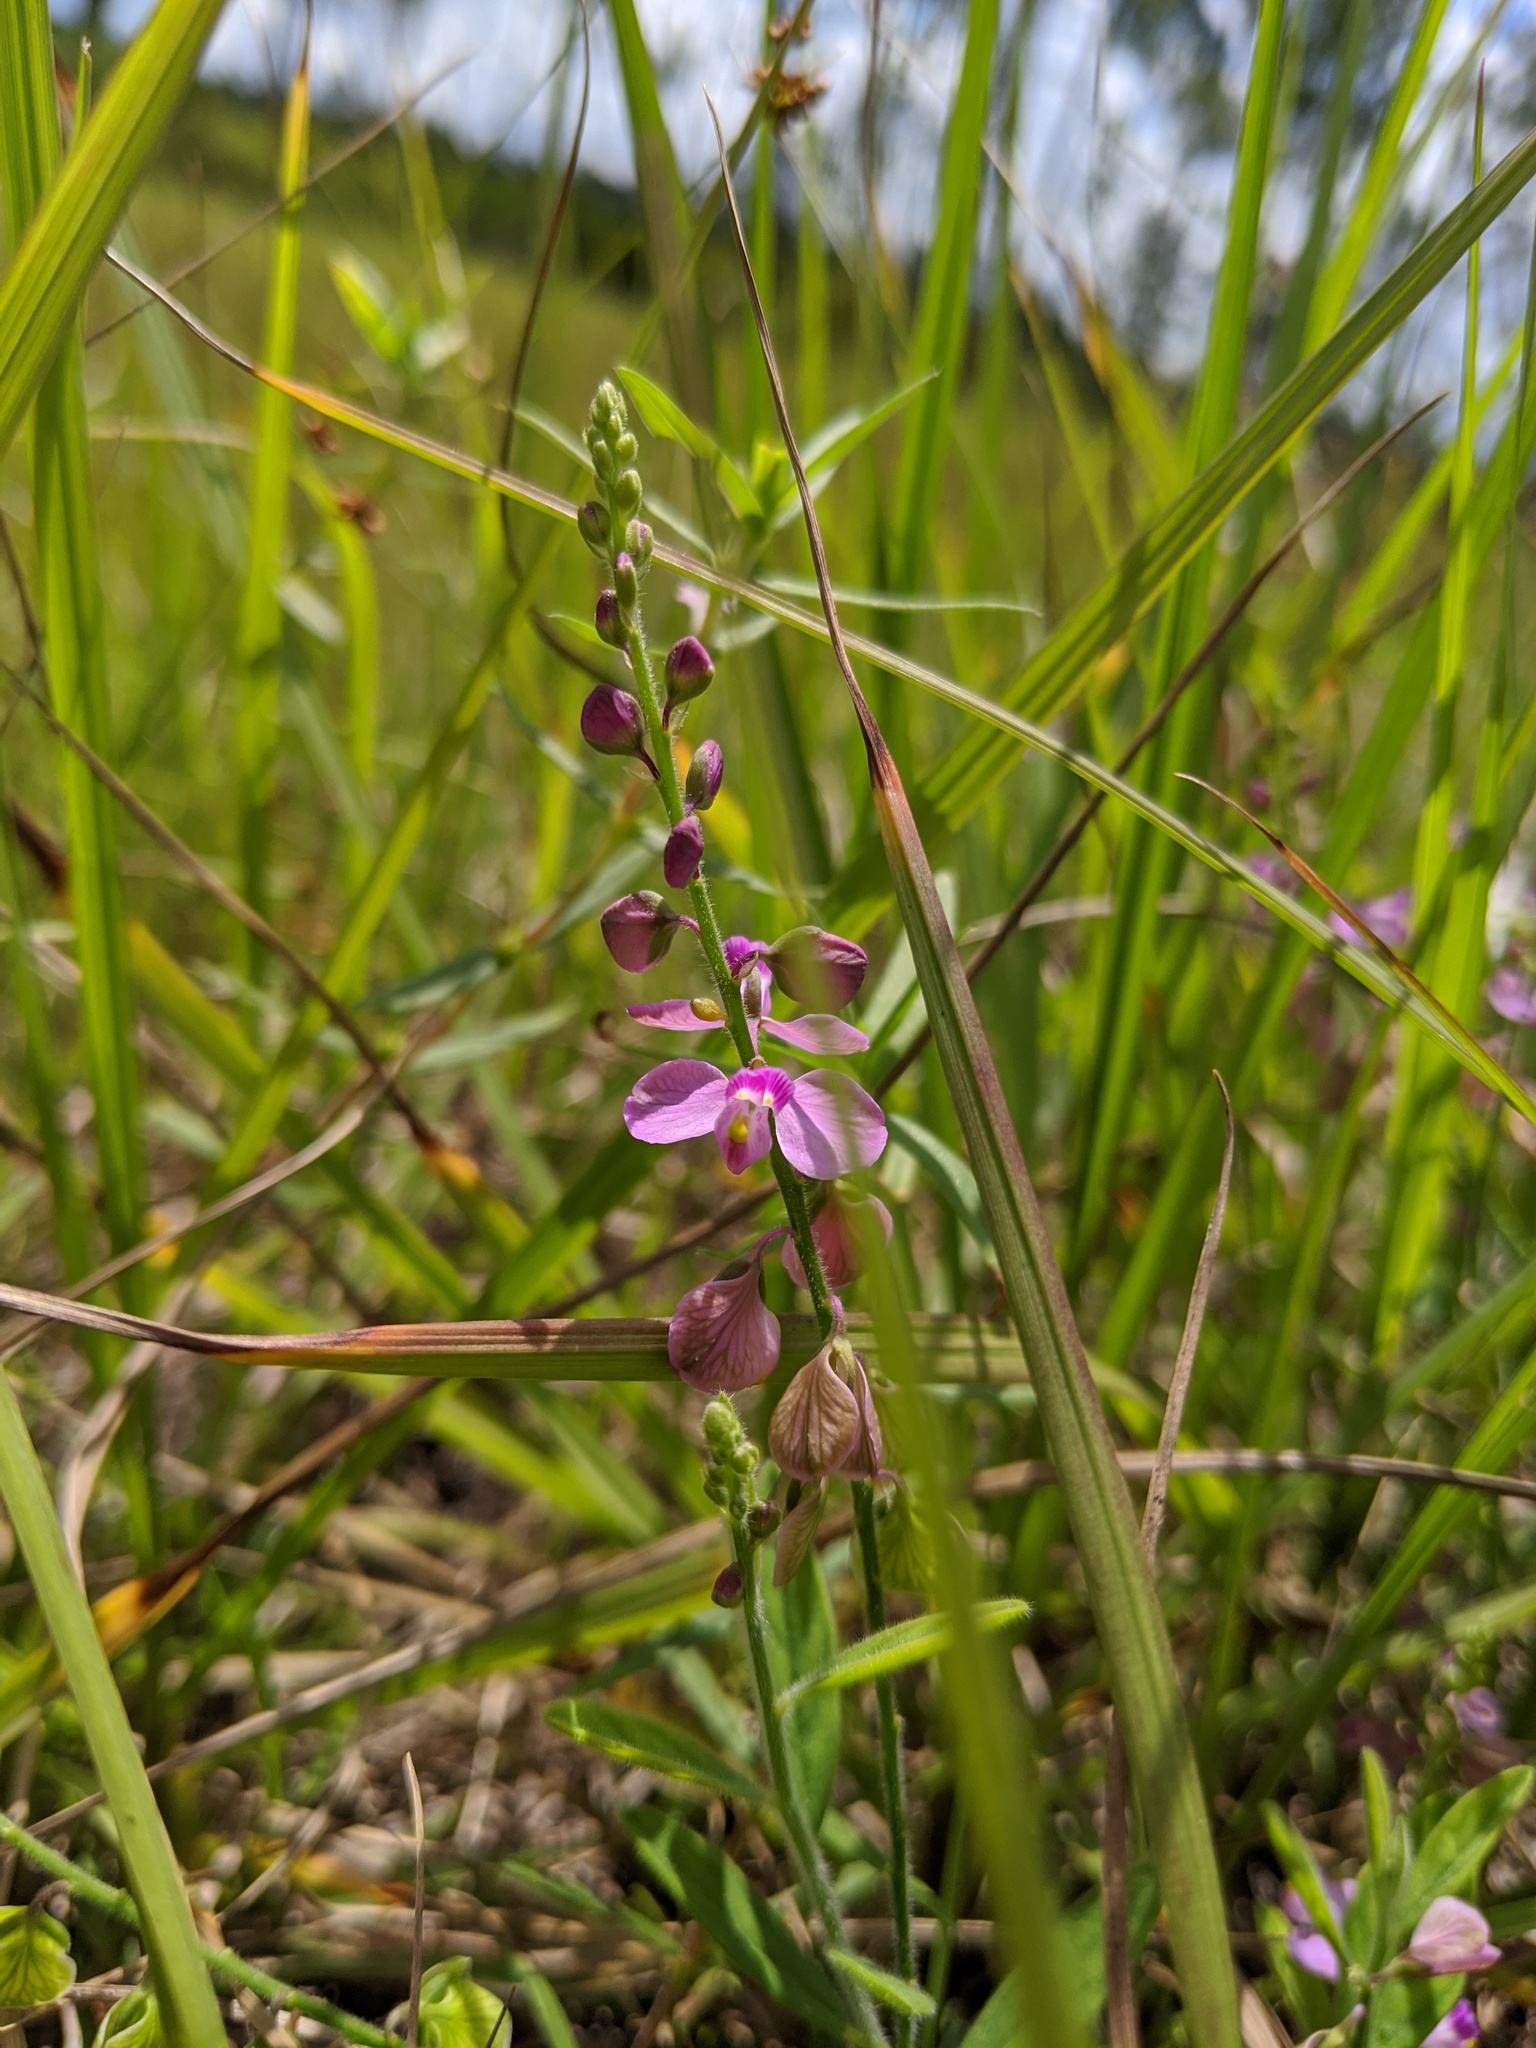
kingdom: Plantae
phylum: Tracheophyta
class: Magnoliopsida
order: Fabales
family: Polygalaceae
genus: Asemeia
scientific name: Asemeia grandiflora
